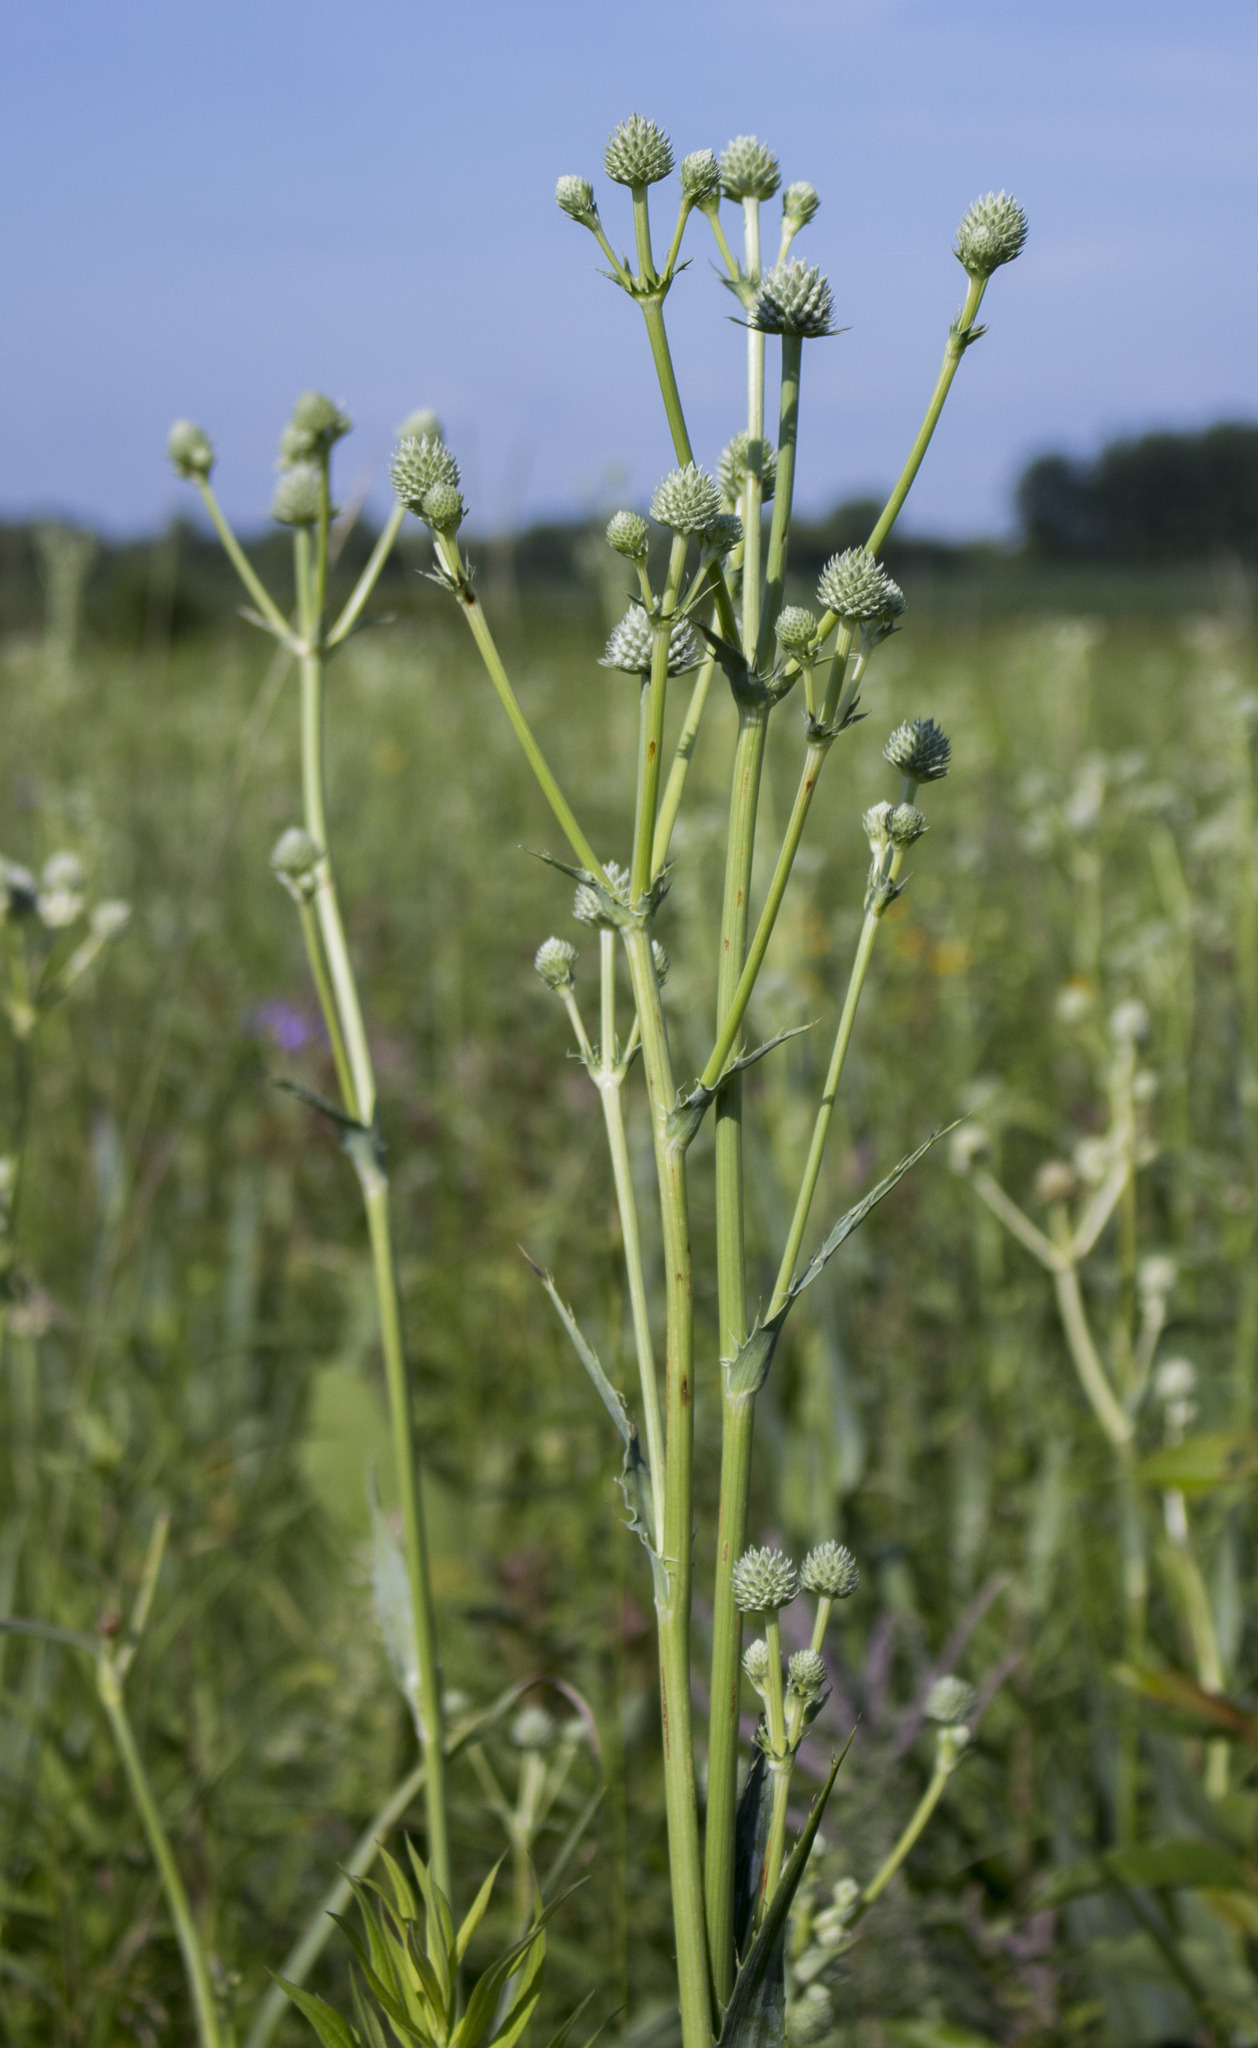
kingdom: Plantae
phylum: Tracheophyta
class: Magnoliopsida
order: Apiales
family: Apiaceae
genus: Eryngium
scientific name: Eryngium yuccifolium
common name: Button eryngo
